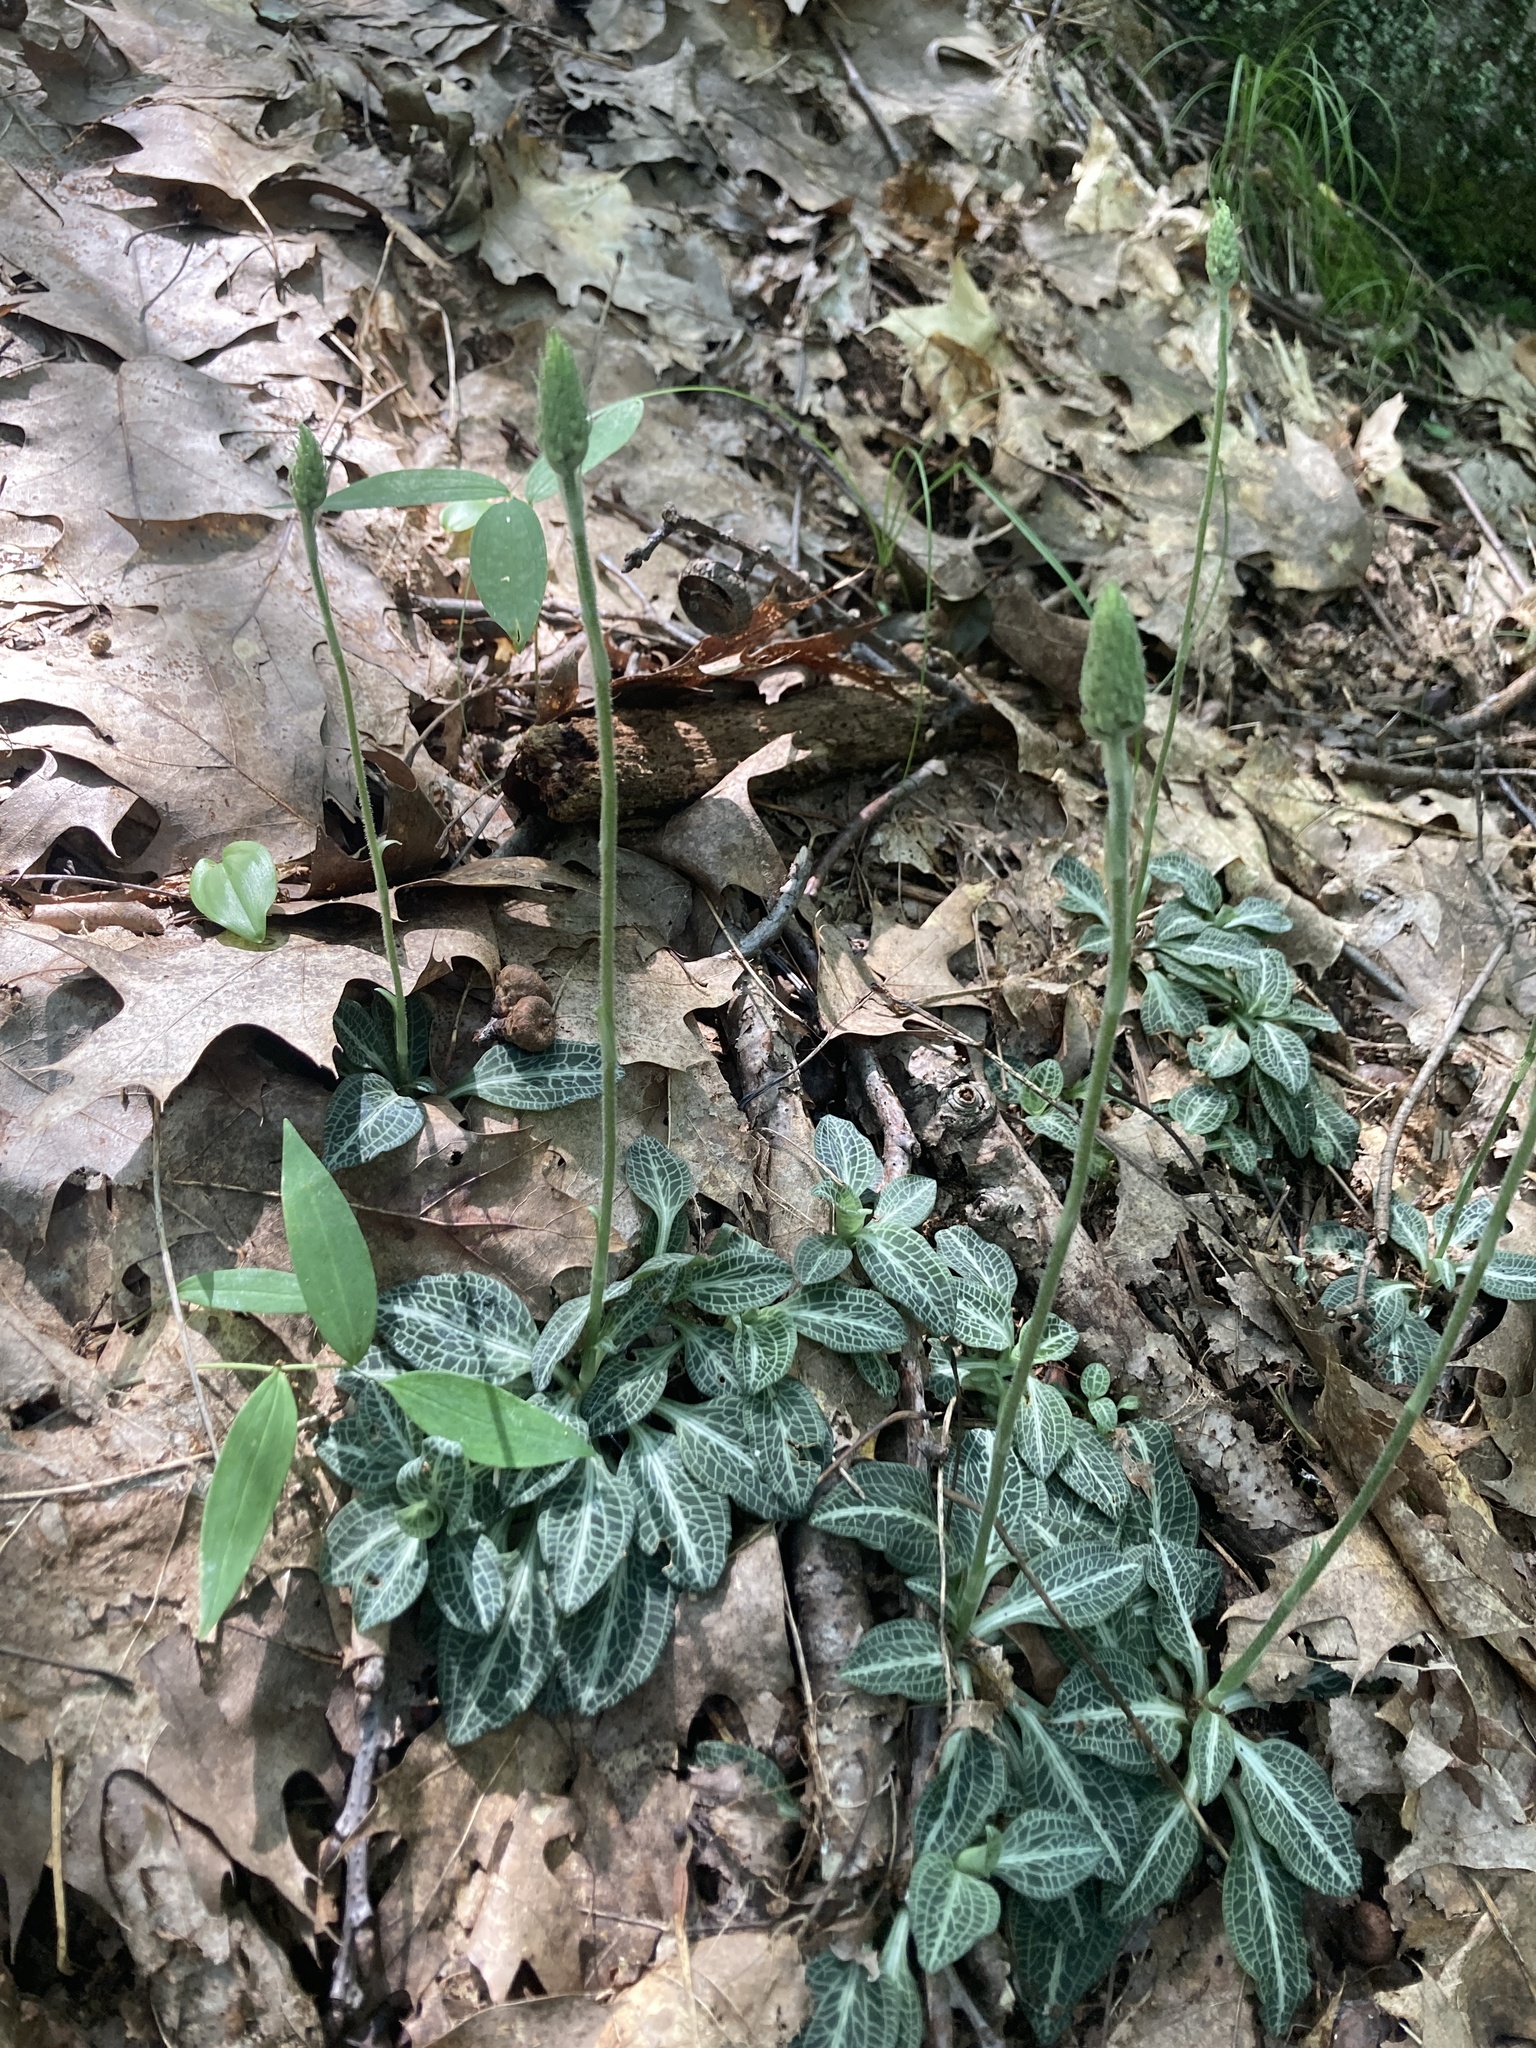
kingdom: Plantae
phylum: Tracheophyta
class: Liliopsida
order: Asparagales
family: Orchidaceae
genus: Goodyera
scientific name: Goodyera pubescens
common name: Downy rattlesnake-plantain
